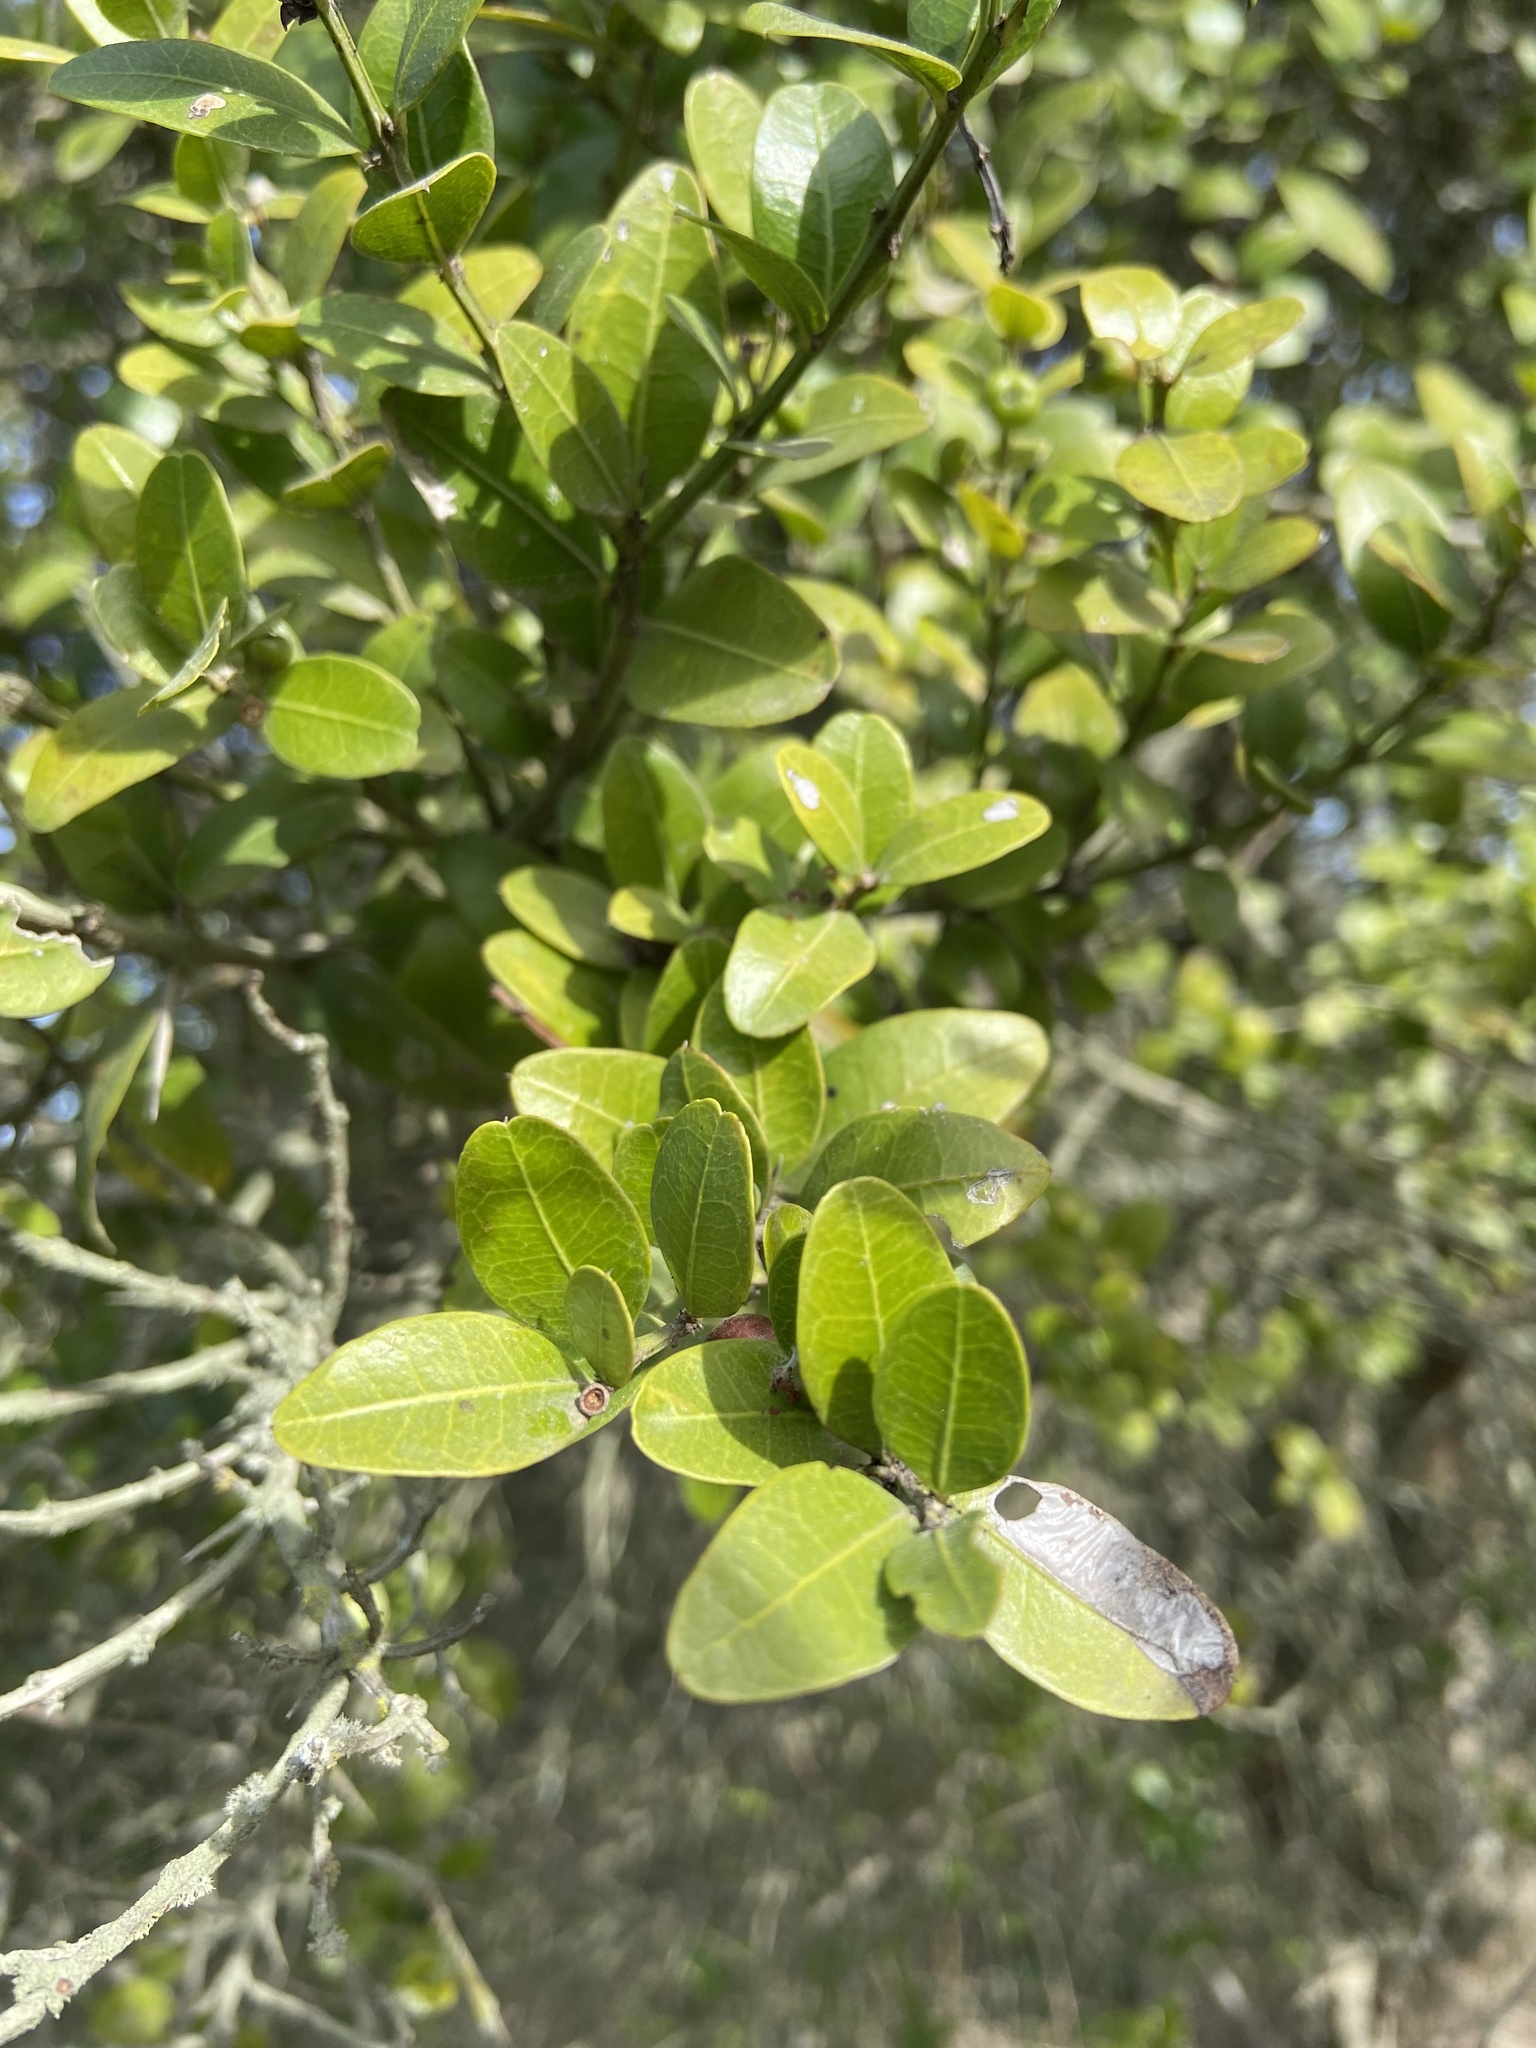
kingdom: Plantae
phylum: Tracheophyta
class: Magnoliopsida
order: Rosales
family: Rhamnaceae
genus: Scutia
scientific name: Scutia buxifolia
